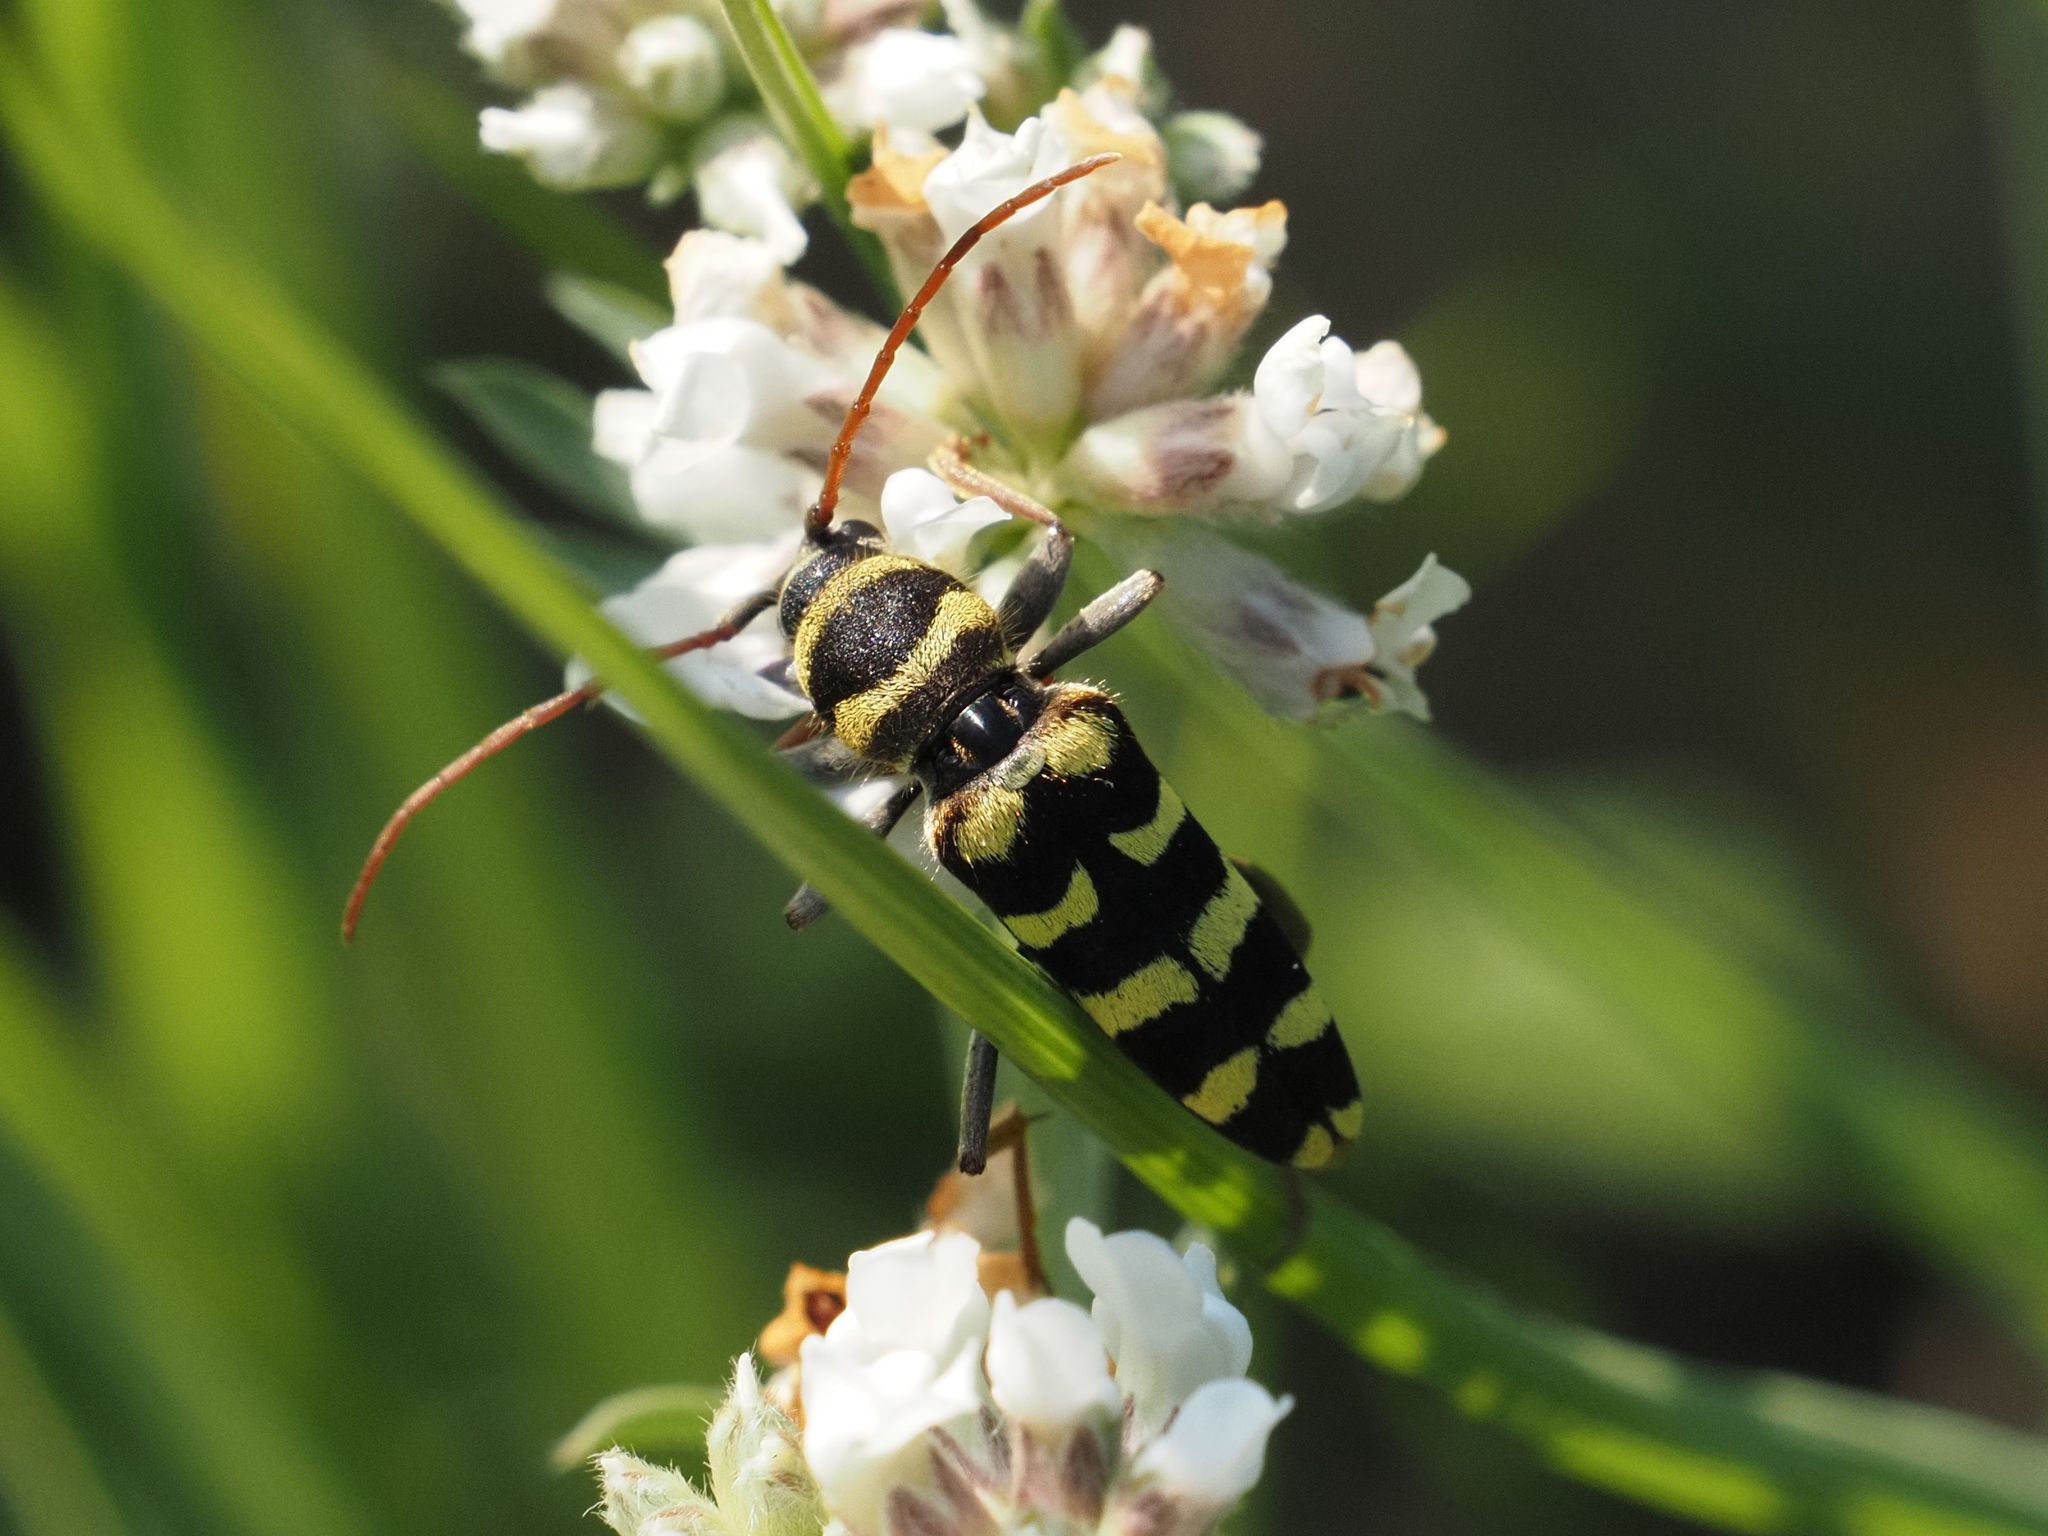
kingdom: Animalia
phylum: Arthropoda
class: Insecta
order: Coleoptera
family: Cerambycidae
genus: Plagionotus
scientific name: Plagionotus floralis
